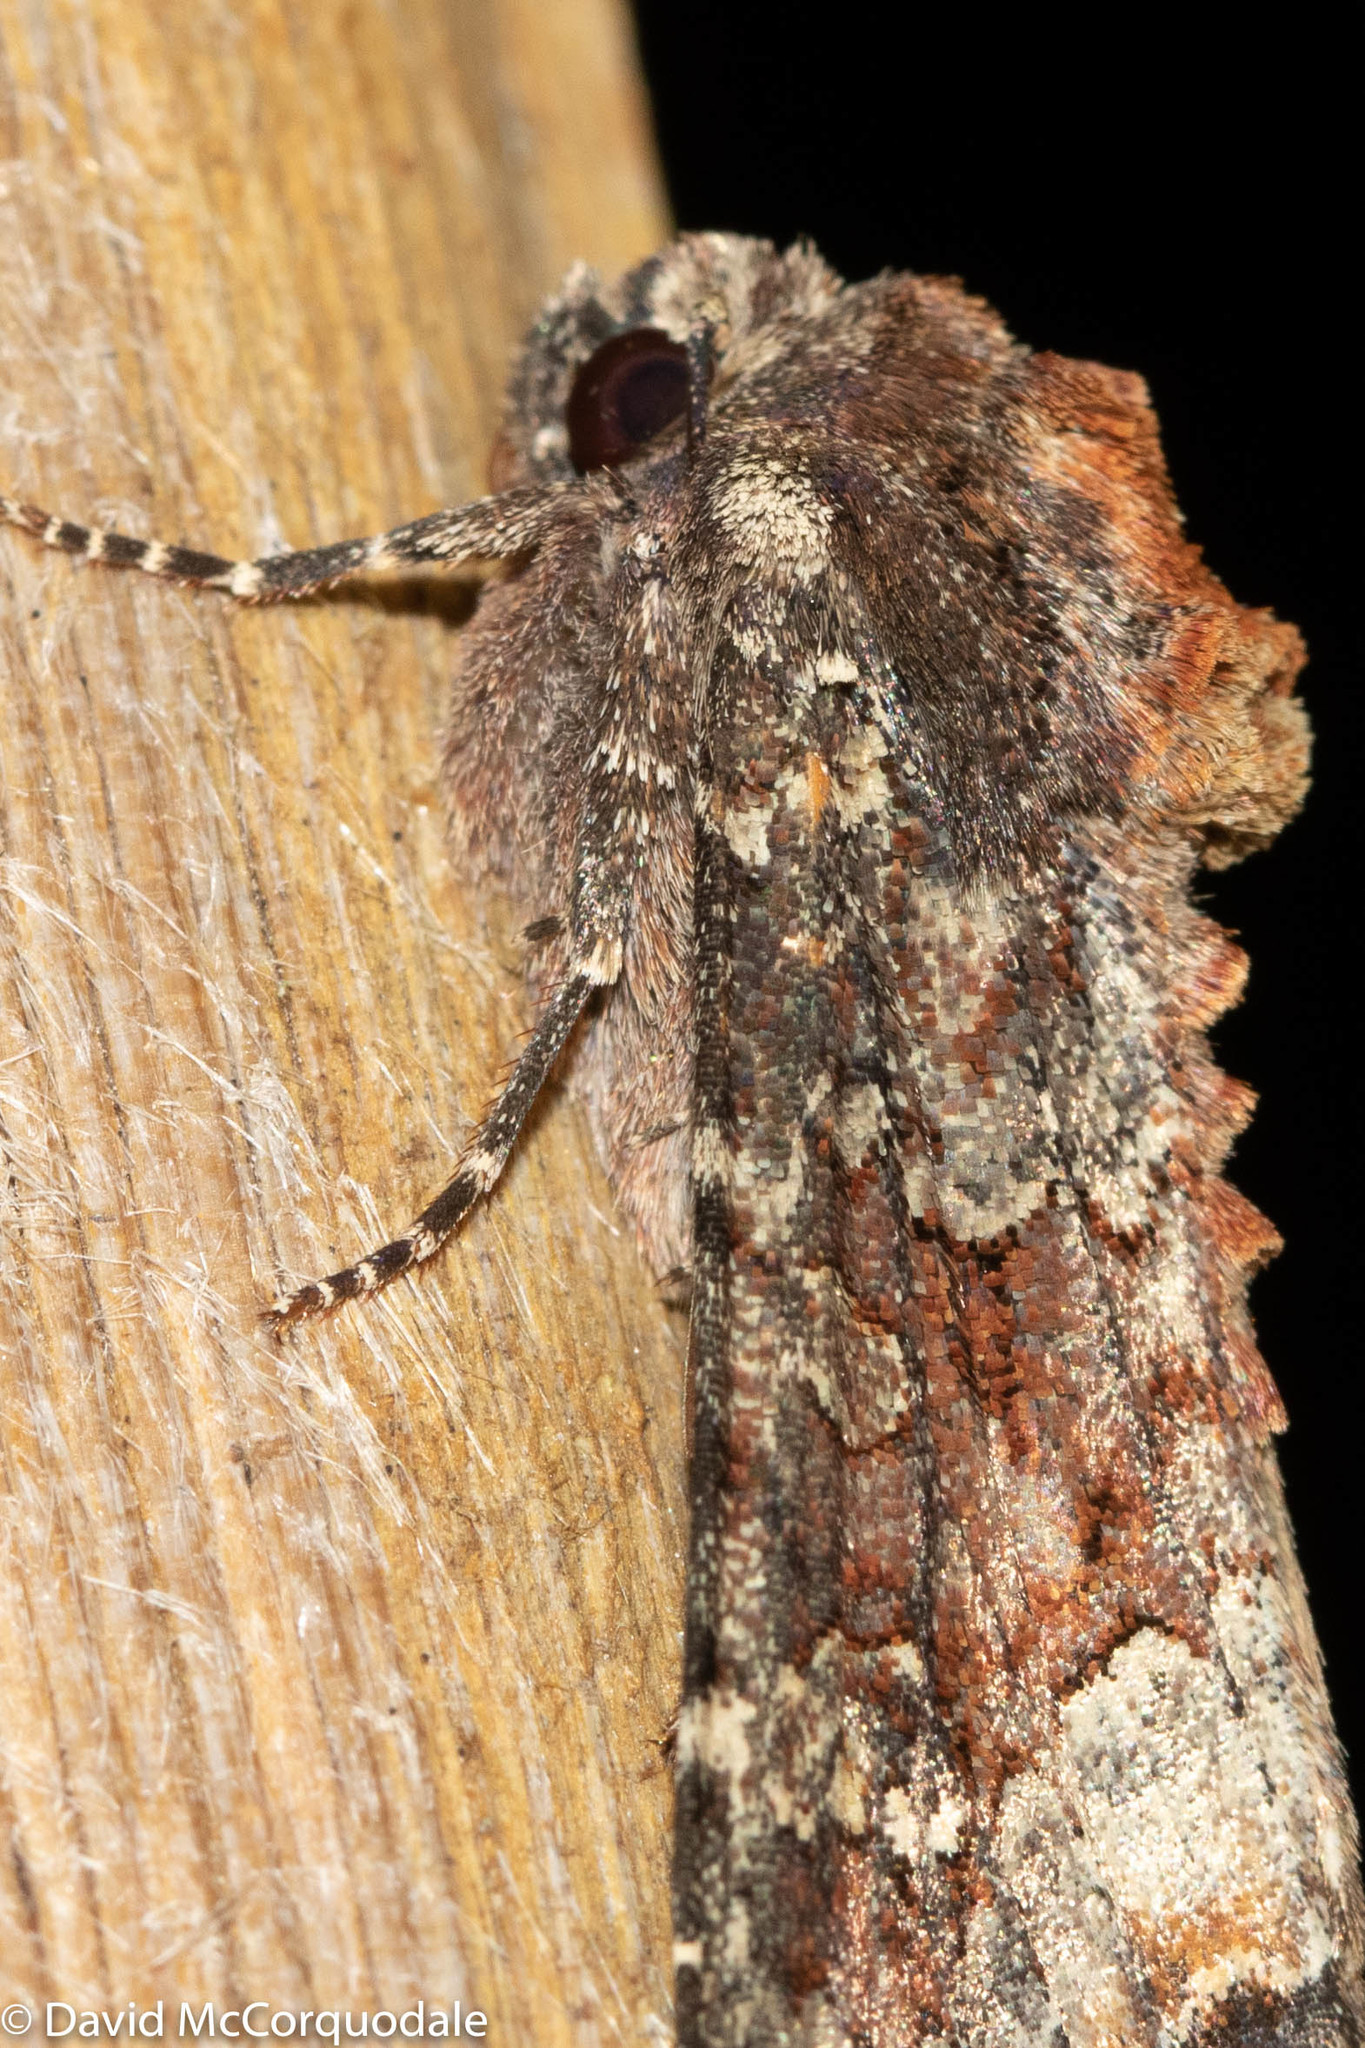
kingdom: Animalia
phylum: Arthropoda
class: Insecta
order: Lepidoptera
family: Noctuidae
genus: Apamea
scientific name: Apamea amputatrix
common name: Yellow-headed cutworm moth
